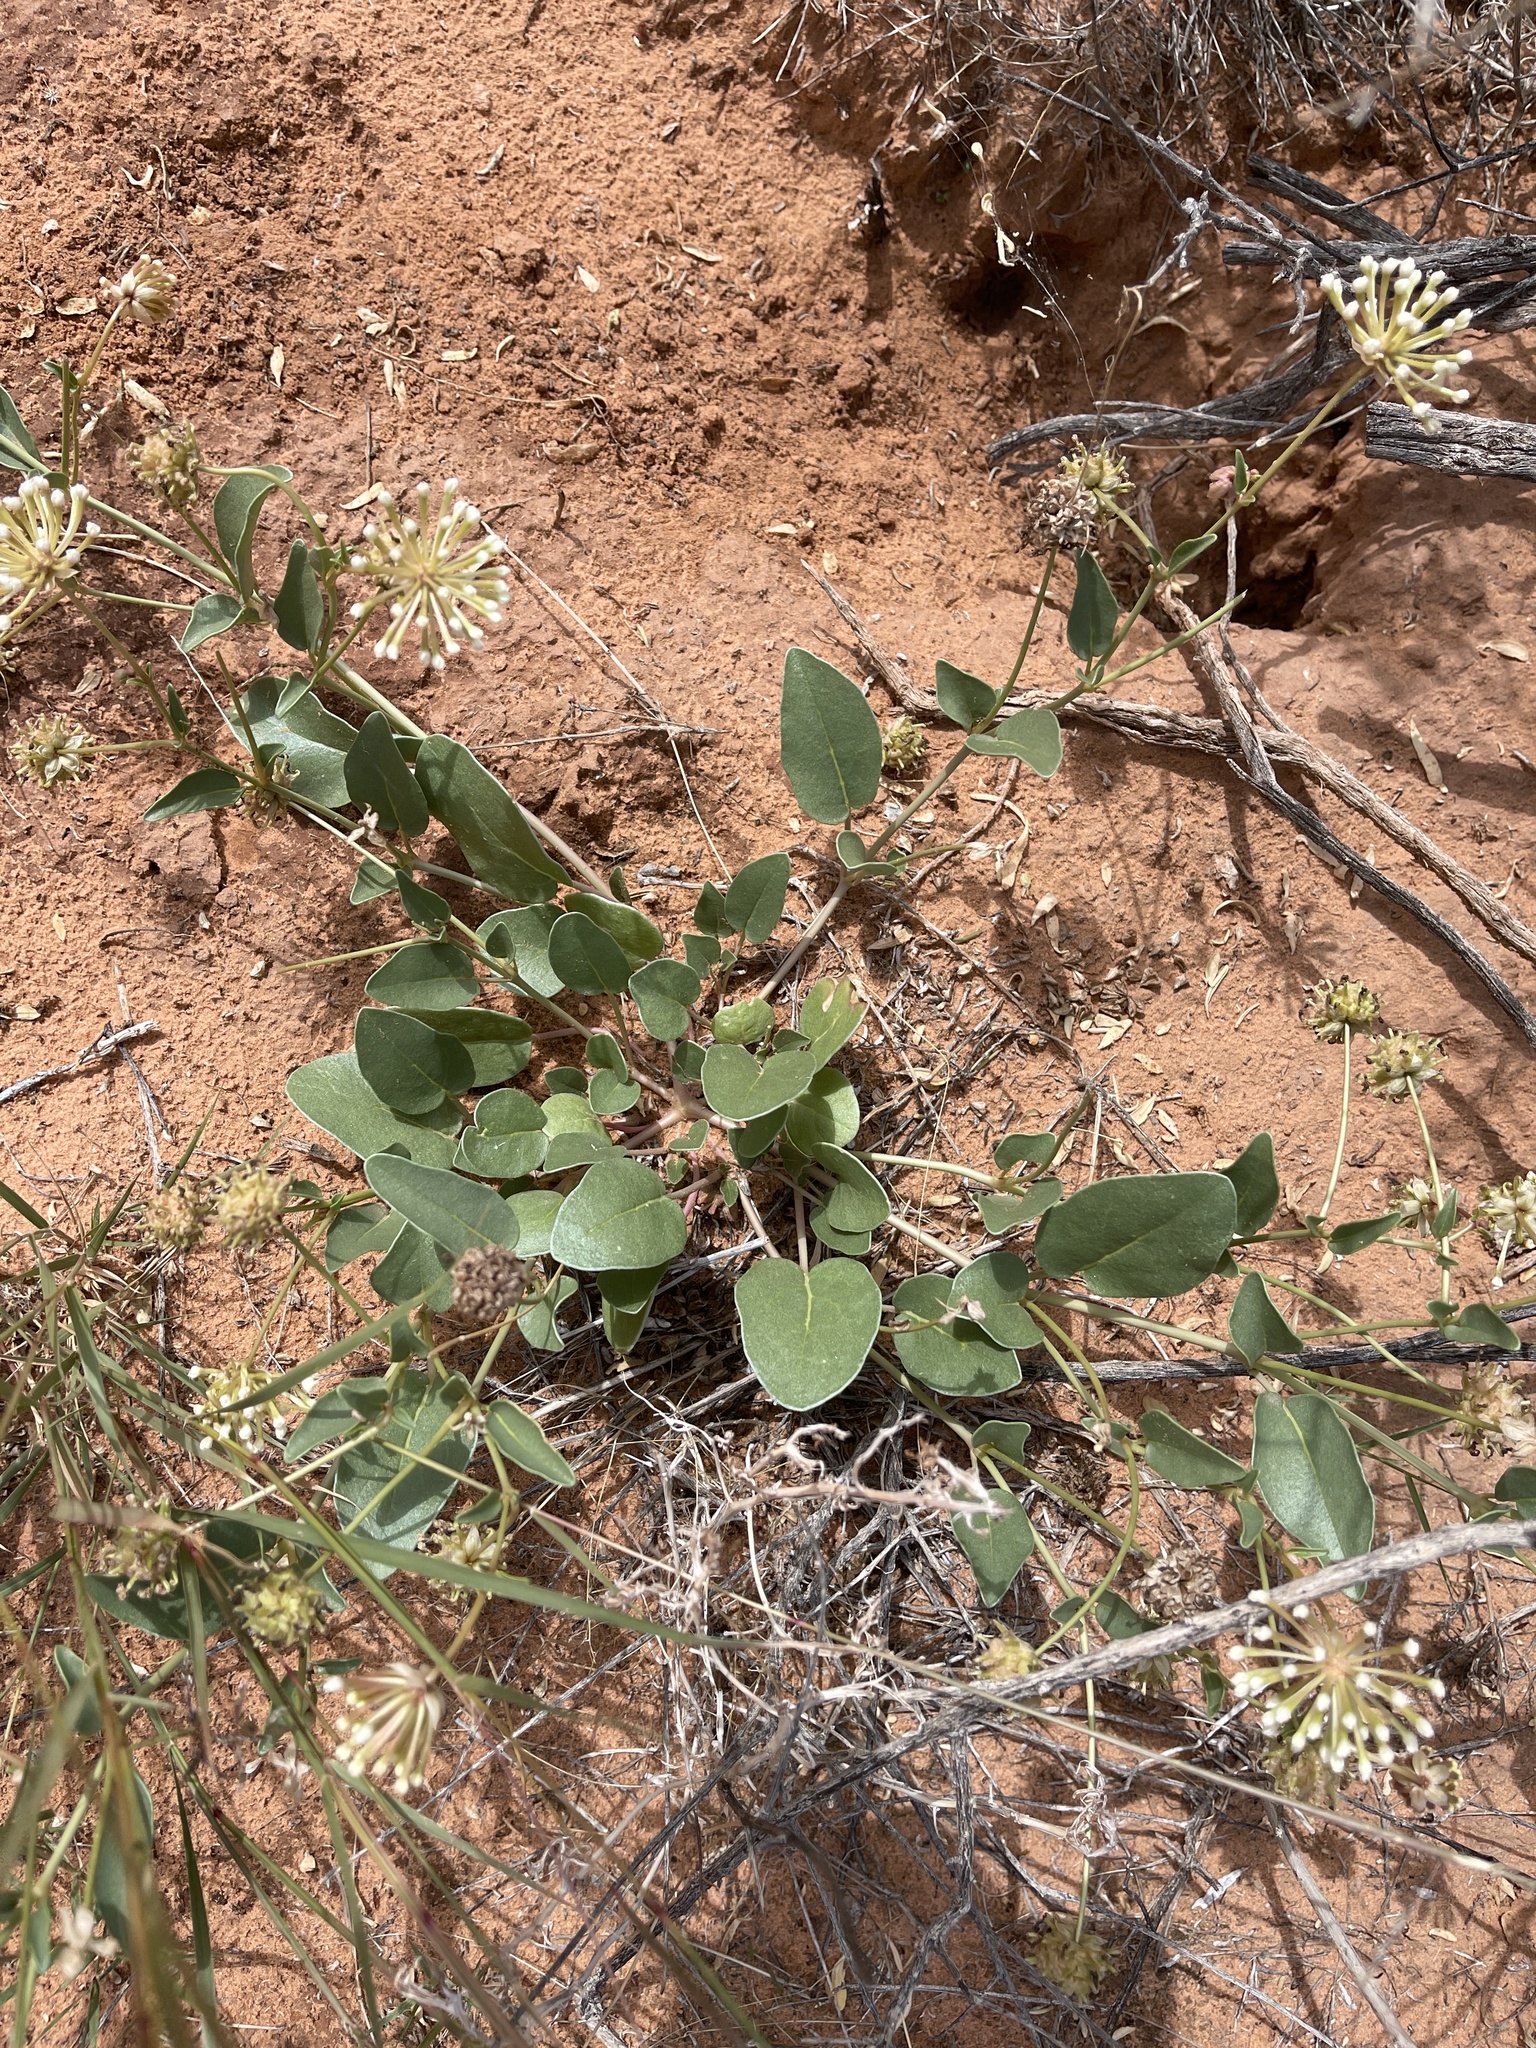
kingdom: Plantae
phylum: Tracheophyta
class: Magnoliopsida
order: Caryophyllales
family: Nyctaginaceae
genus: Abronia
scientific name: Abronia elliptica
